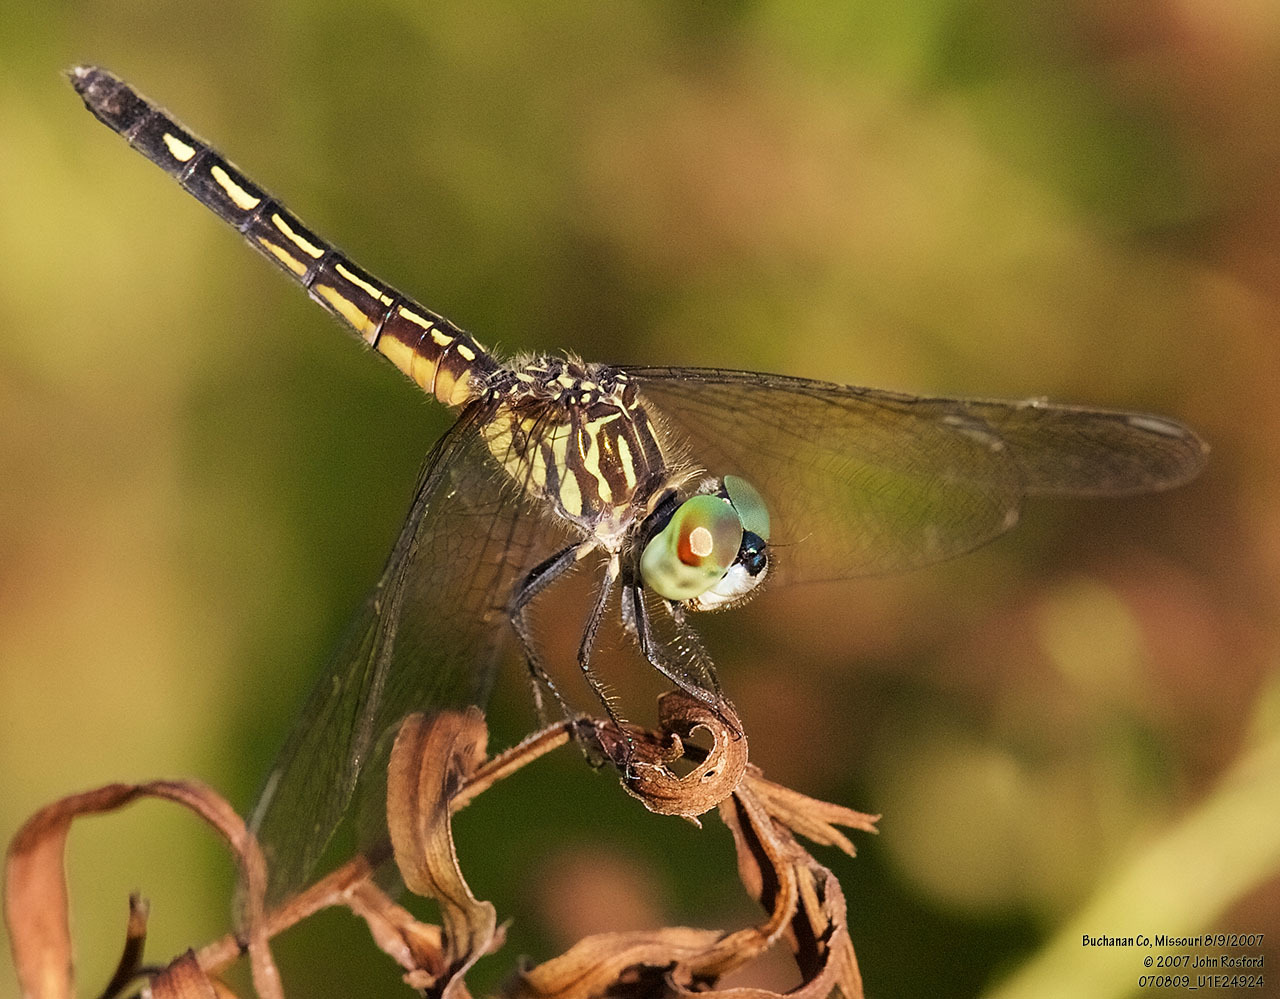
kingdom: Animalia
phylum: Arthropoda
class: Insecta
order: Odonata
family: Libellulidae
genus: Pachydiplax
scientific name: Pachydiplax longipennis
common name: Blue dasher
